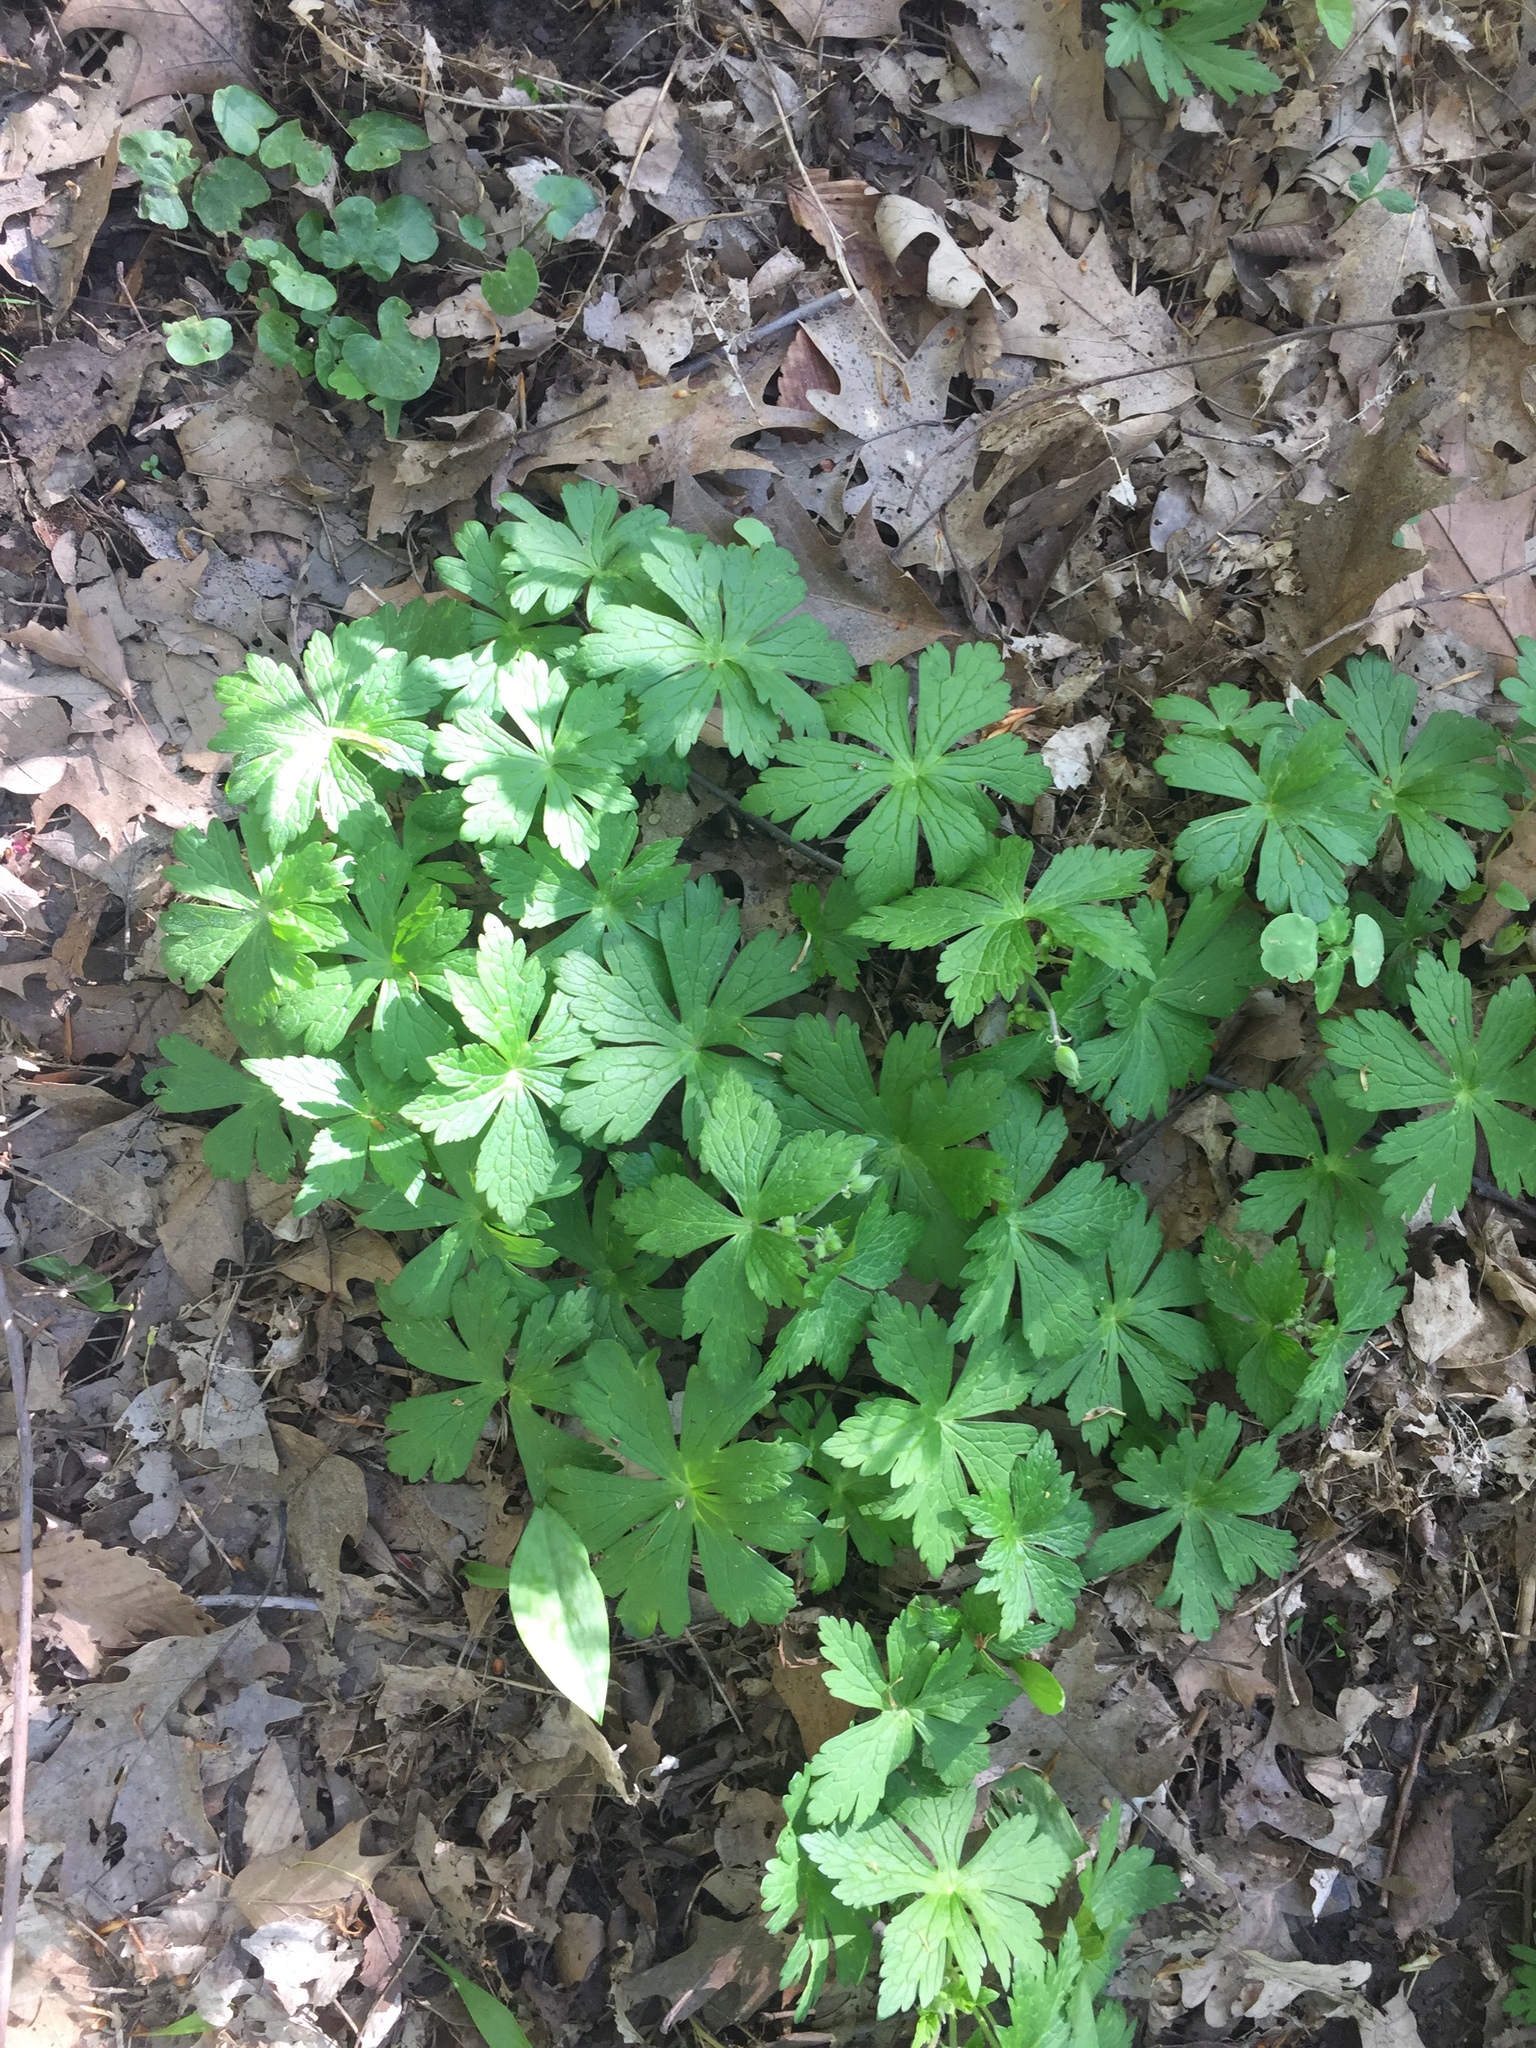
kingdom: Plantae
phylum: Tracheophyta
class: Magnoliopsida
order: Geraniales
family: Geraniaceae
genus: Geranium
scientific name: Geranium maculatum
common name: Spotted geranium
